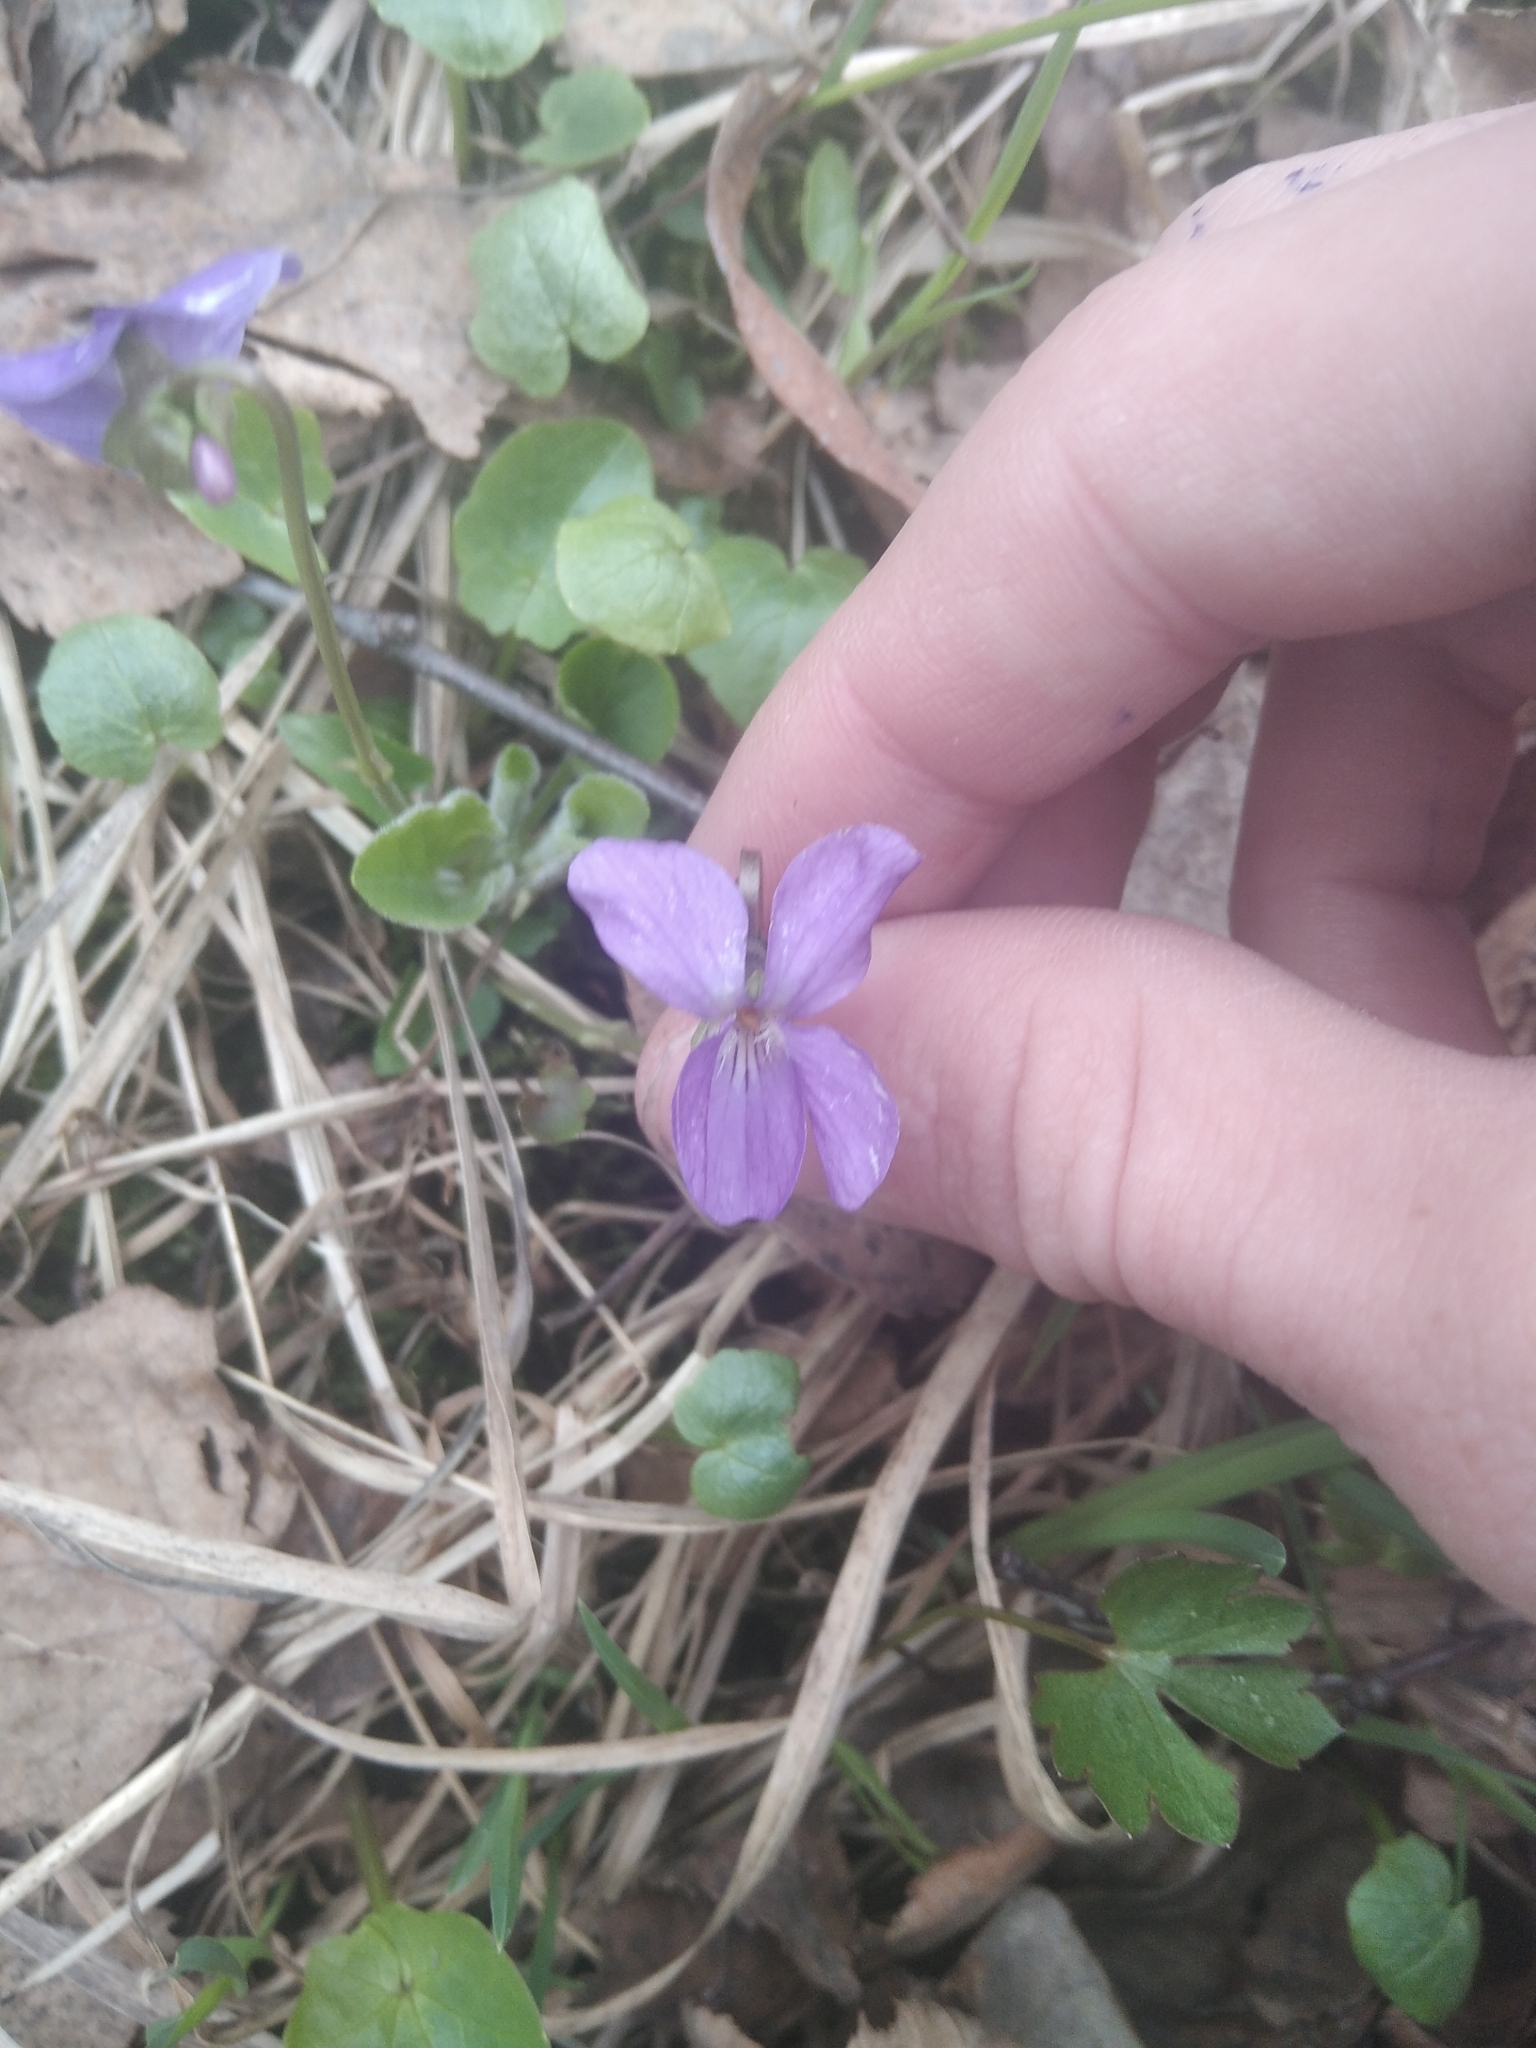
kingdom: Plantae
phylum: Tracheophyta
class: Magnoliopsida
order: Malpighiales
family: Violaceae
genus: Viola
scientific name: Viola hirta
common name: Hairy violet
